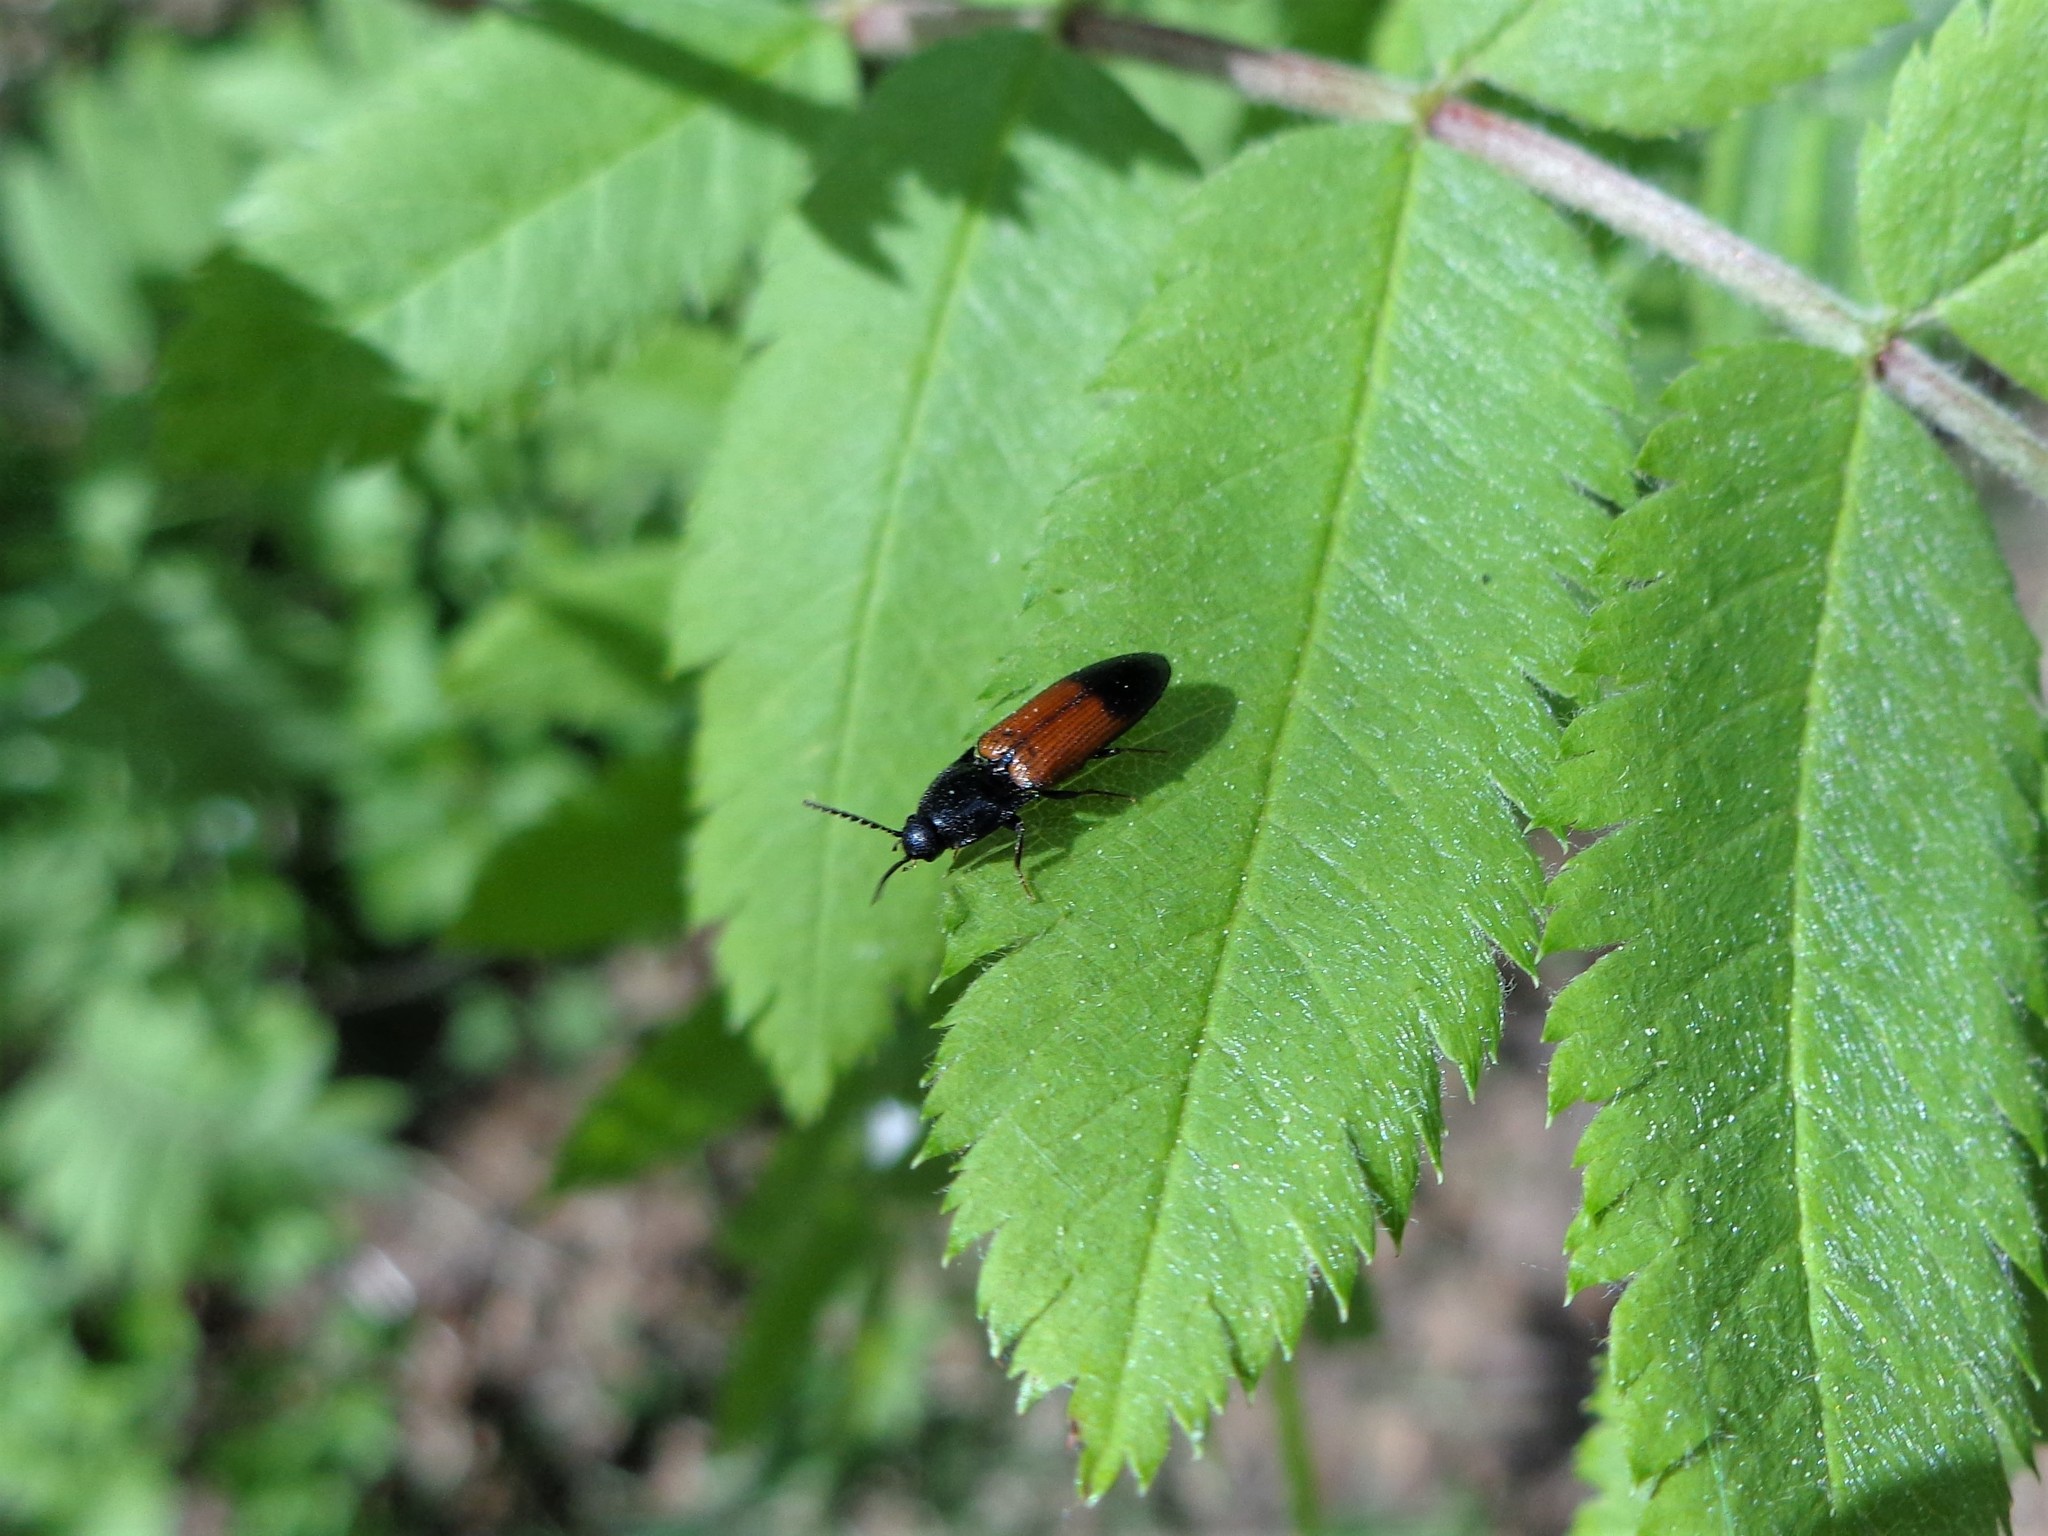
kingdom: Animalia
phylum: Arthropoda
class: Insecta
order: Coleoptera
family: Elateridae
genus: Ampedus
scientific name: Ampedus balteatus
